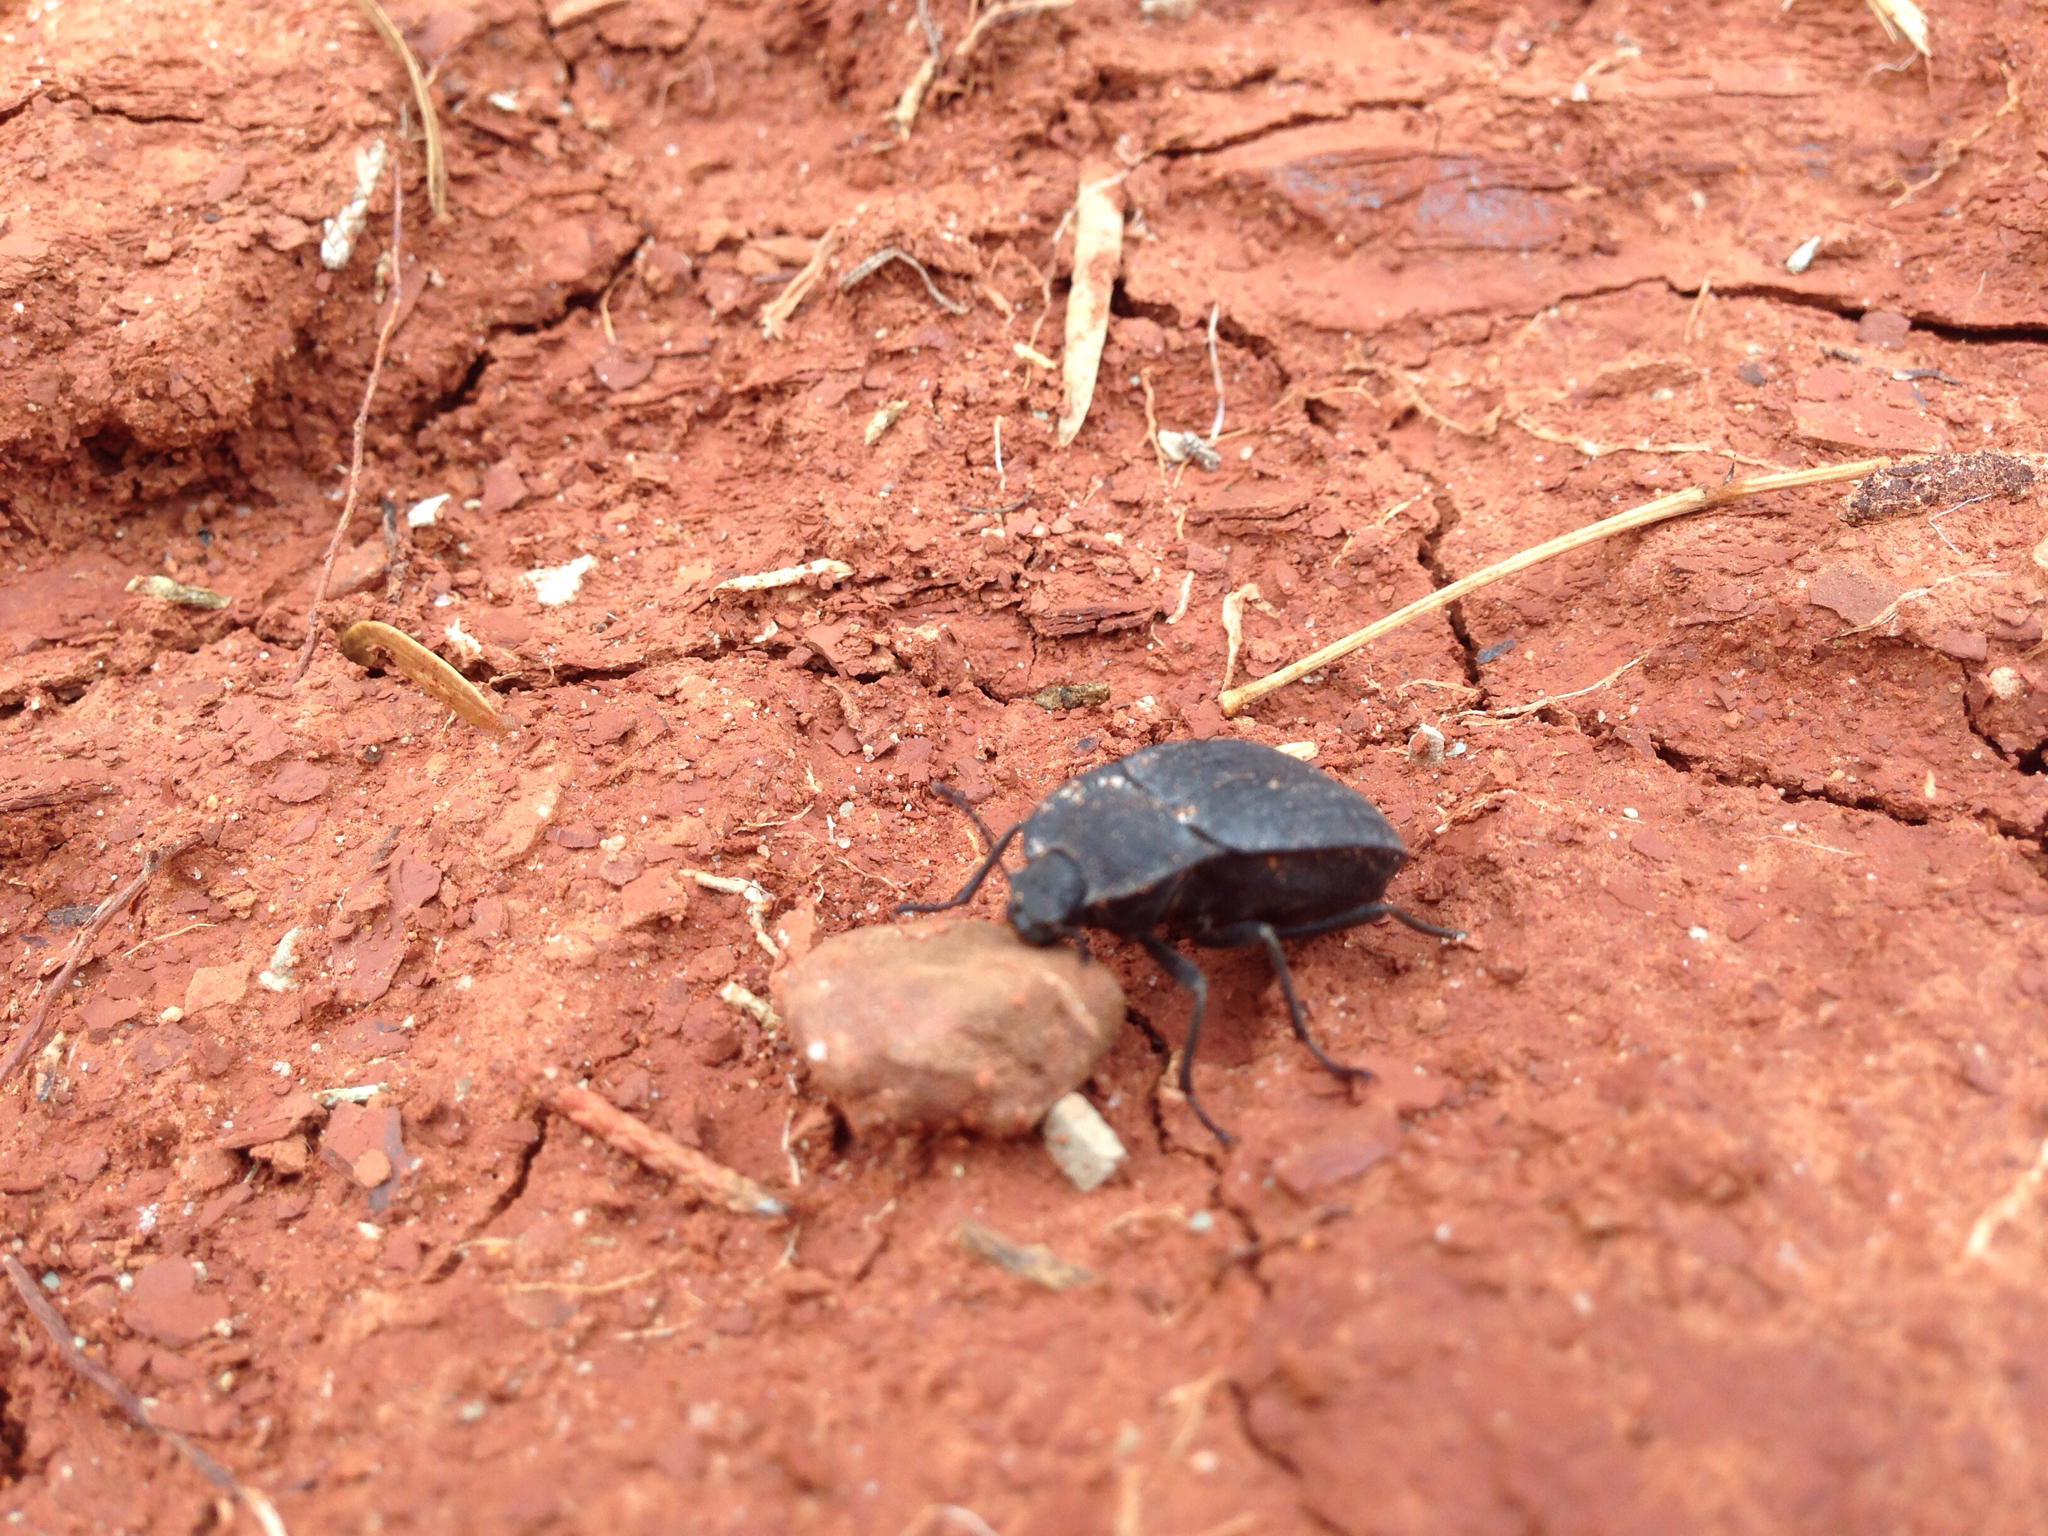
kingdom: Animalia
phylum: Arthropoda
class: Insecta
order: Coleoptera
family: Tenebrionidae
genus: Stenomorpha
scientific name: Stenomorpha opaca
